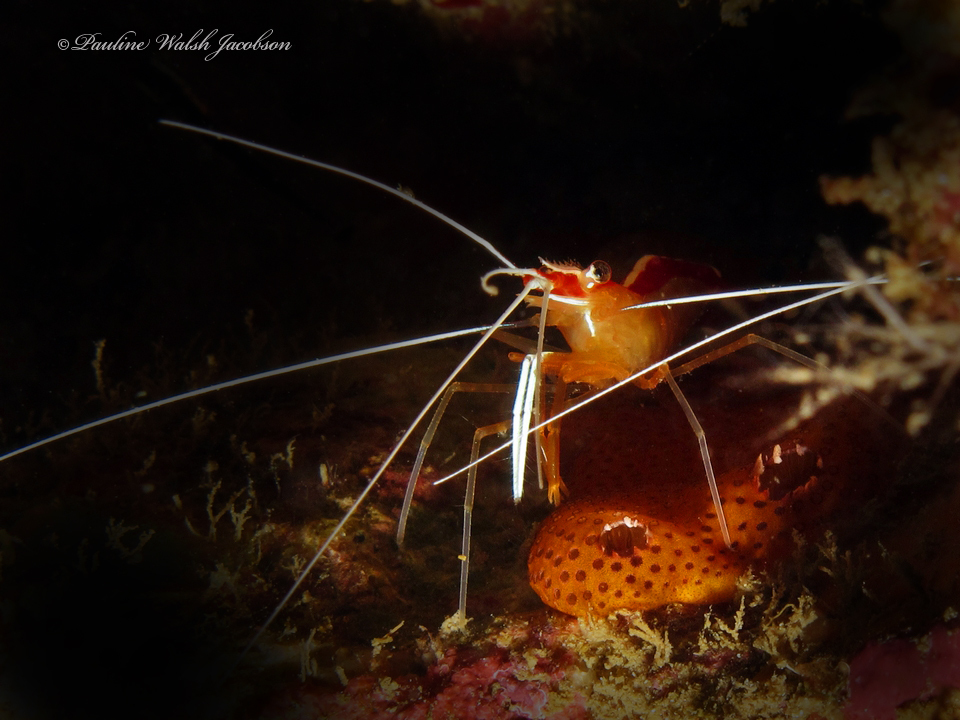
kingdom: Animalia
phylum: Arthropoda
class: Malacostraca
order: Decapoda
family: Lysmatidae
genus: Lysmata
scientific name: Lysmata amboinensis
